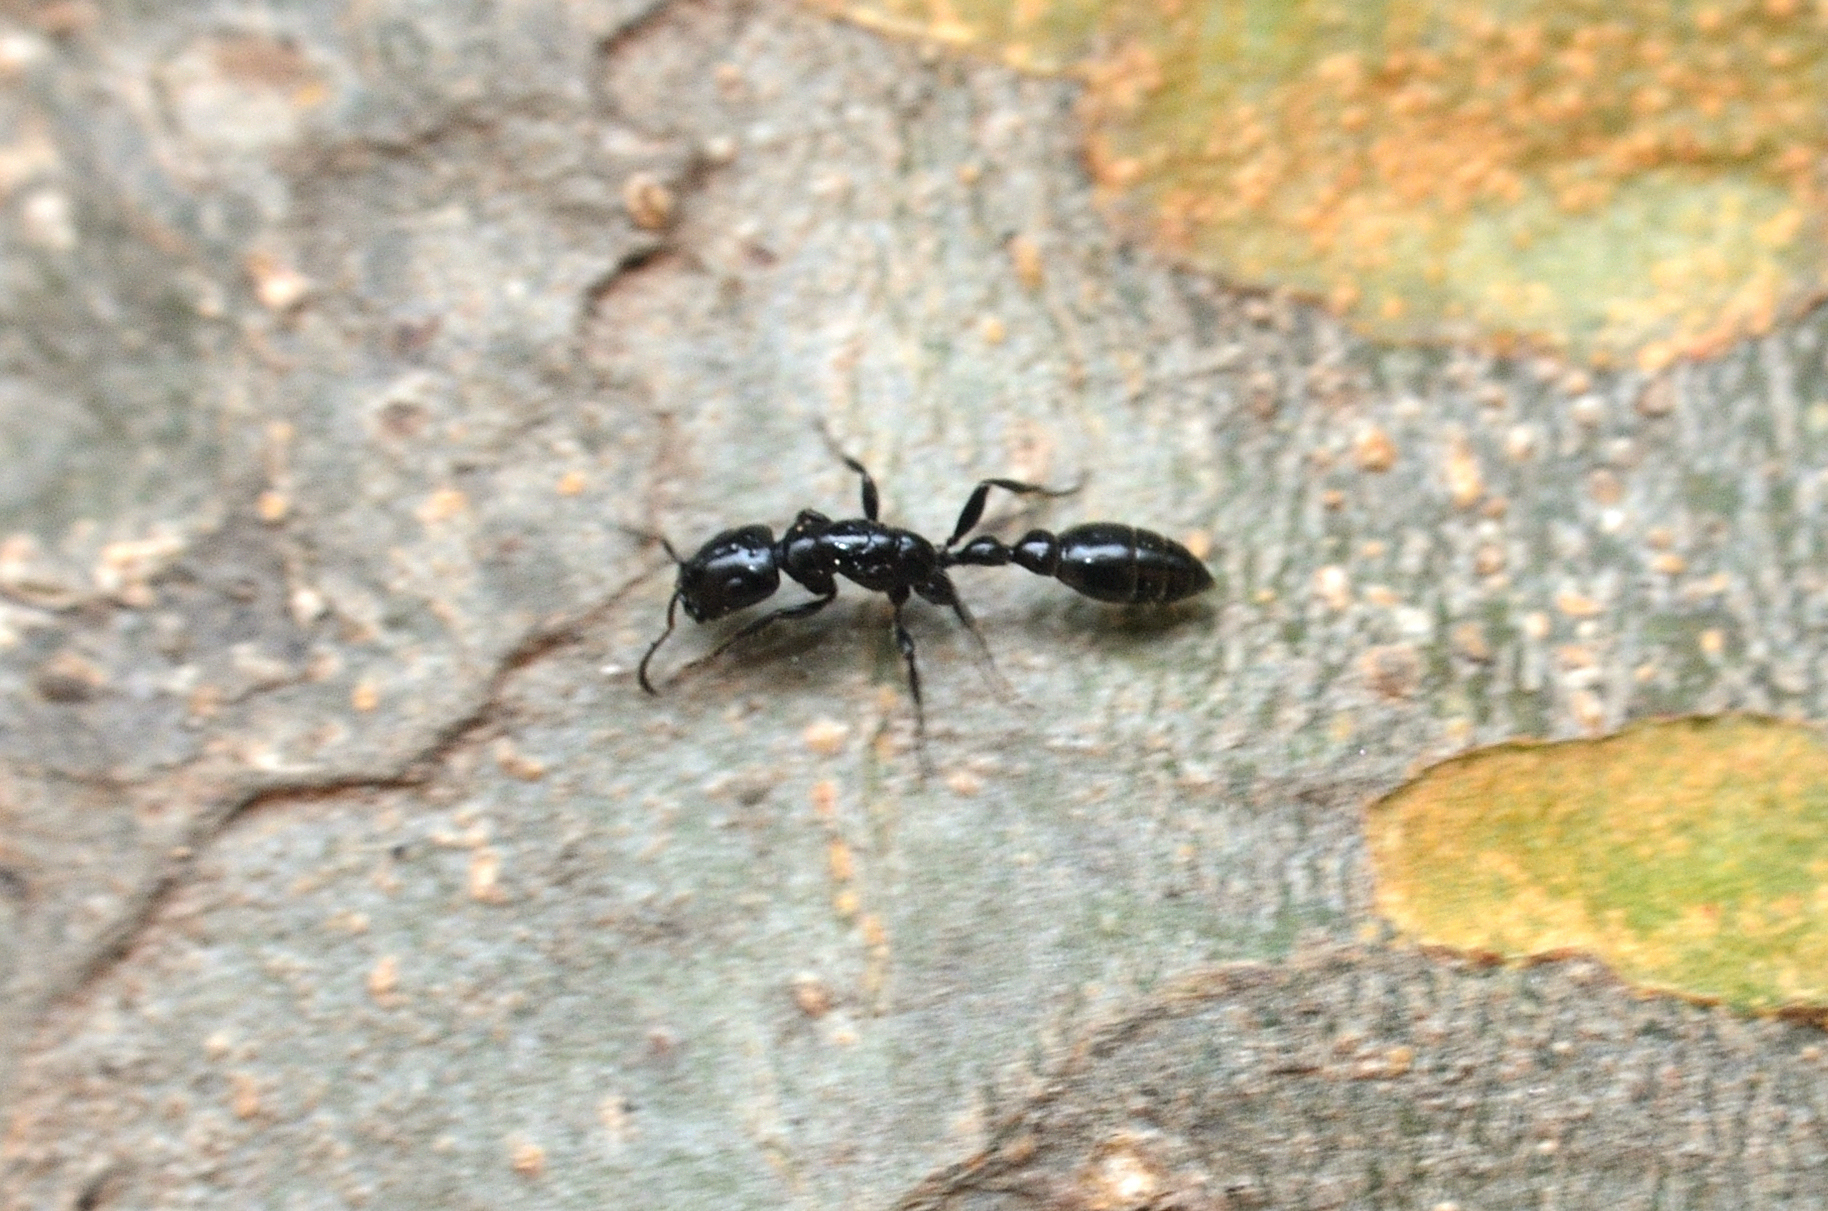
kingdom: Animalia
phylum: Arthropoda
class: Insecta
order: Hymenoptera
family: Formicidae
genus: Tetraponera
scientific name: Tetraponera nigra
